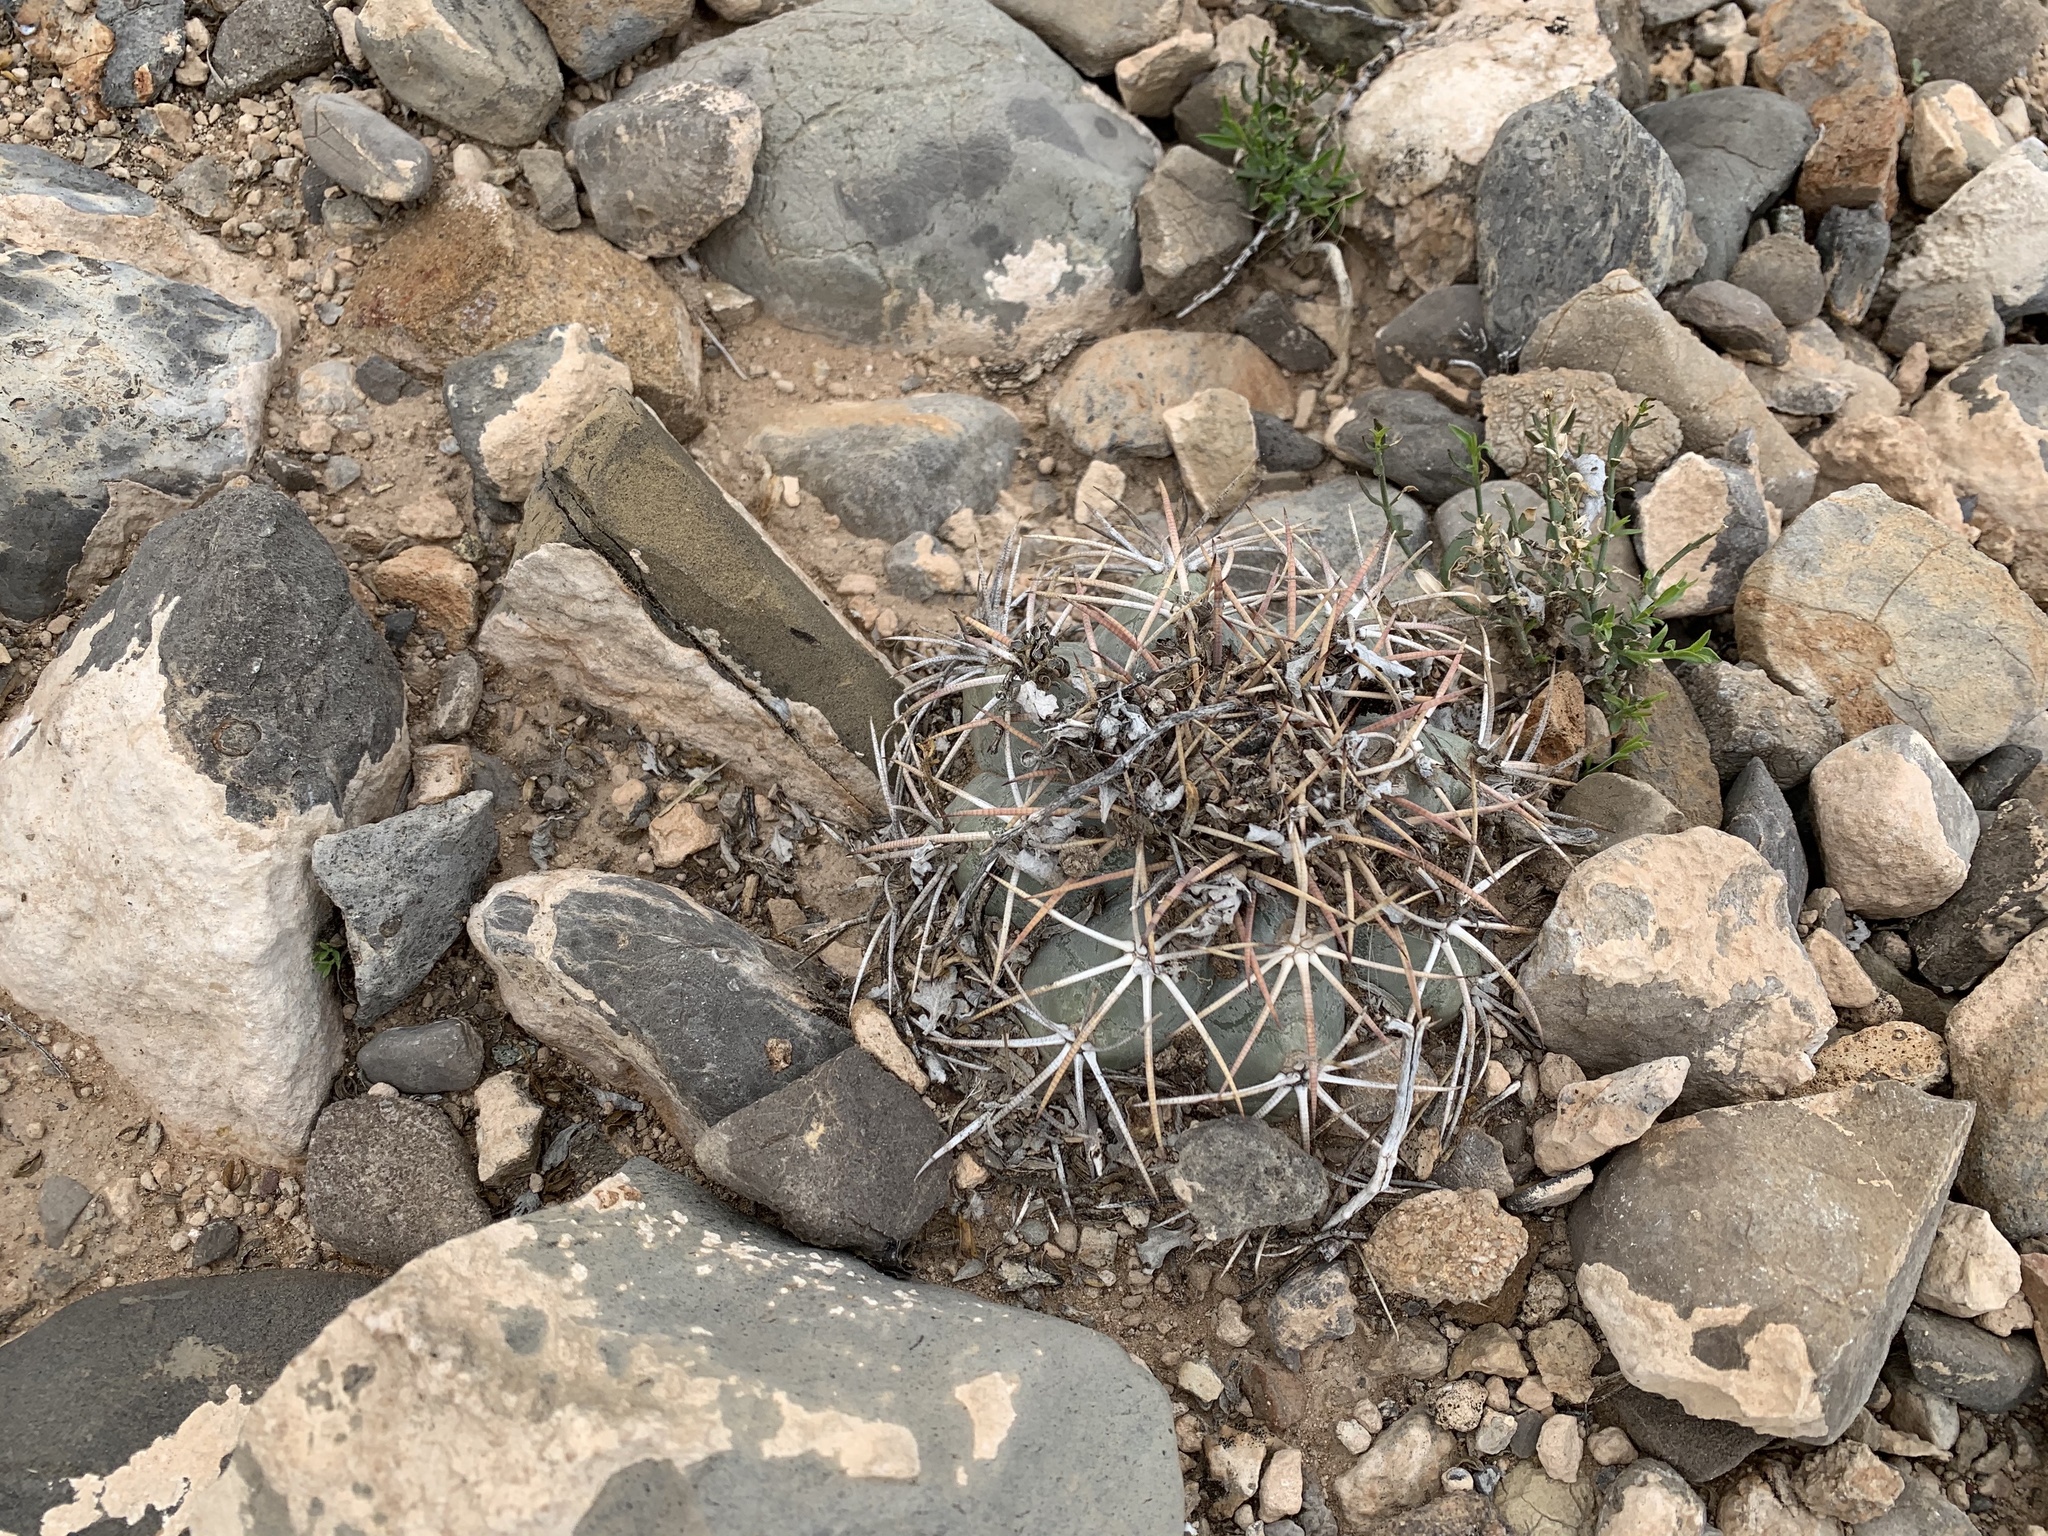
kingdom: Plantae
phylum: Tracheophyta
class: Magnoliopsida
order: Caryophyllales
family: Cactaceae
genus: Echinocactus
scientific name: Echinocactus horizonthalonius
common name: Devilshead
